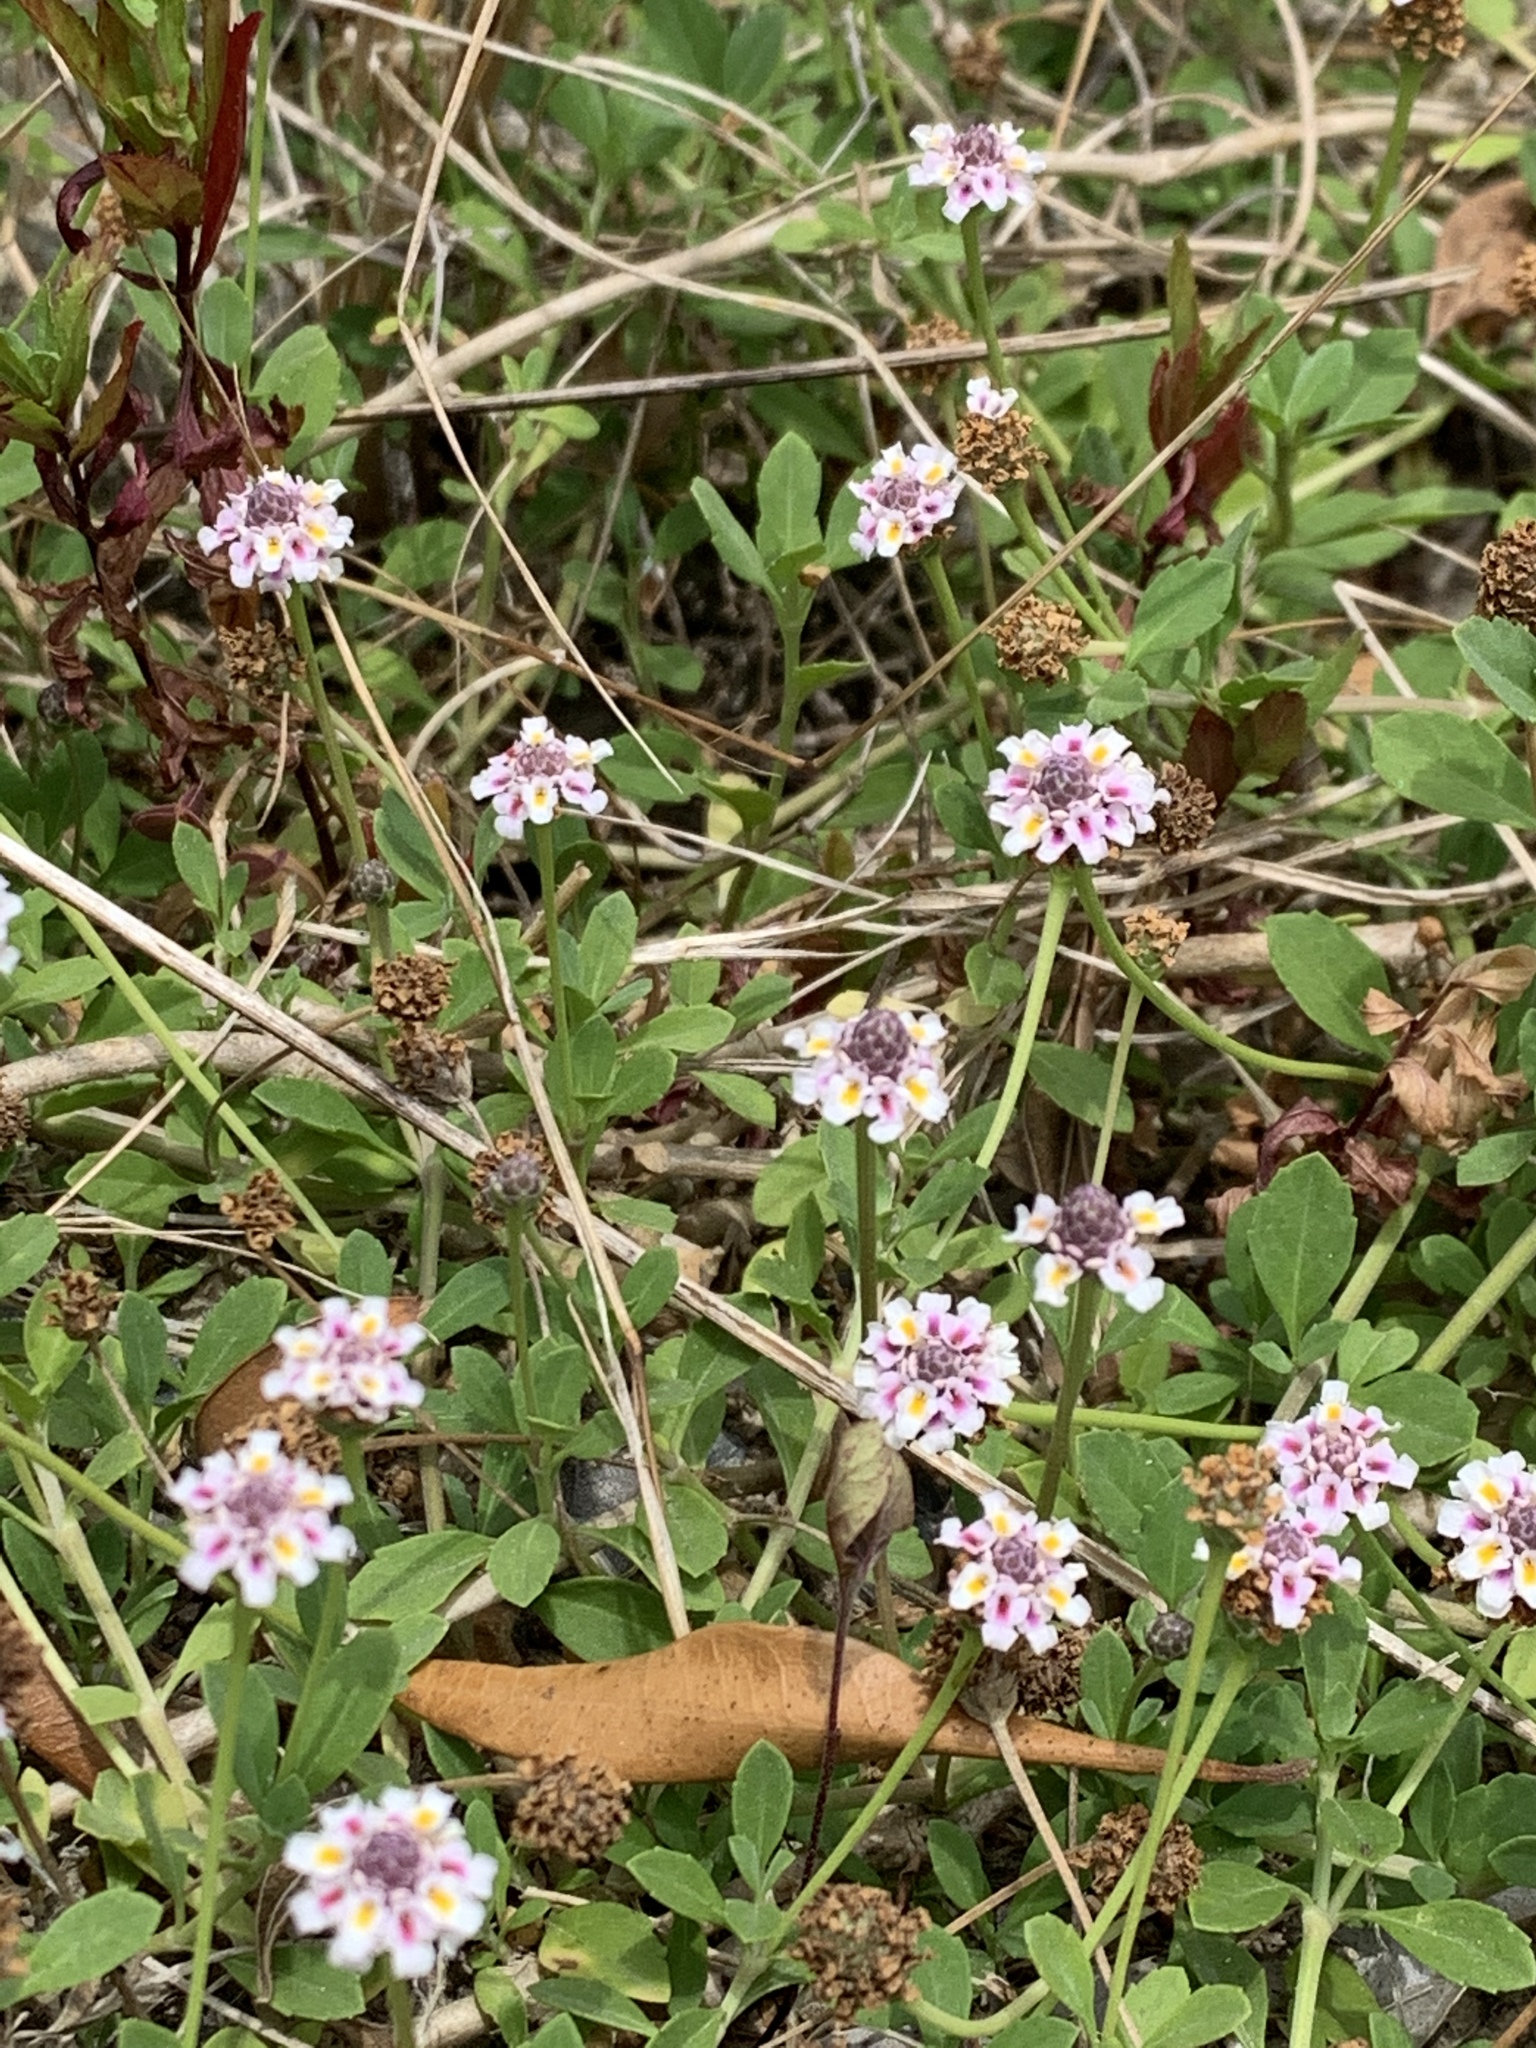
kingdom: Plantae
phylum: Tracheophyta
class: Magnoliopsida
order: Lamiales
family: Verbenaceae
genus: Phyla
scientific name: Phyla nodiflora
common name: Frogfruit
